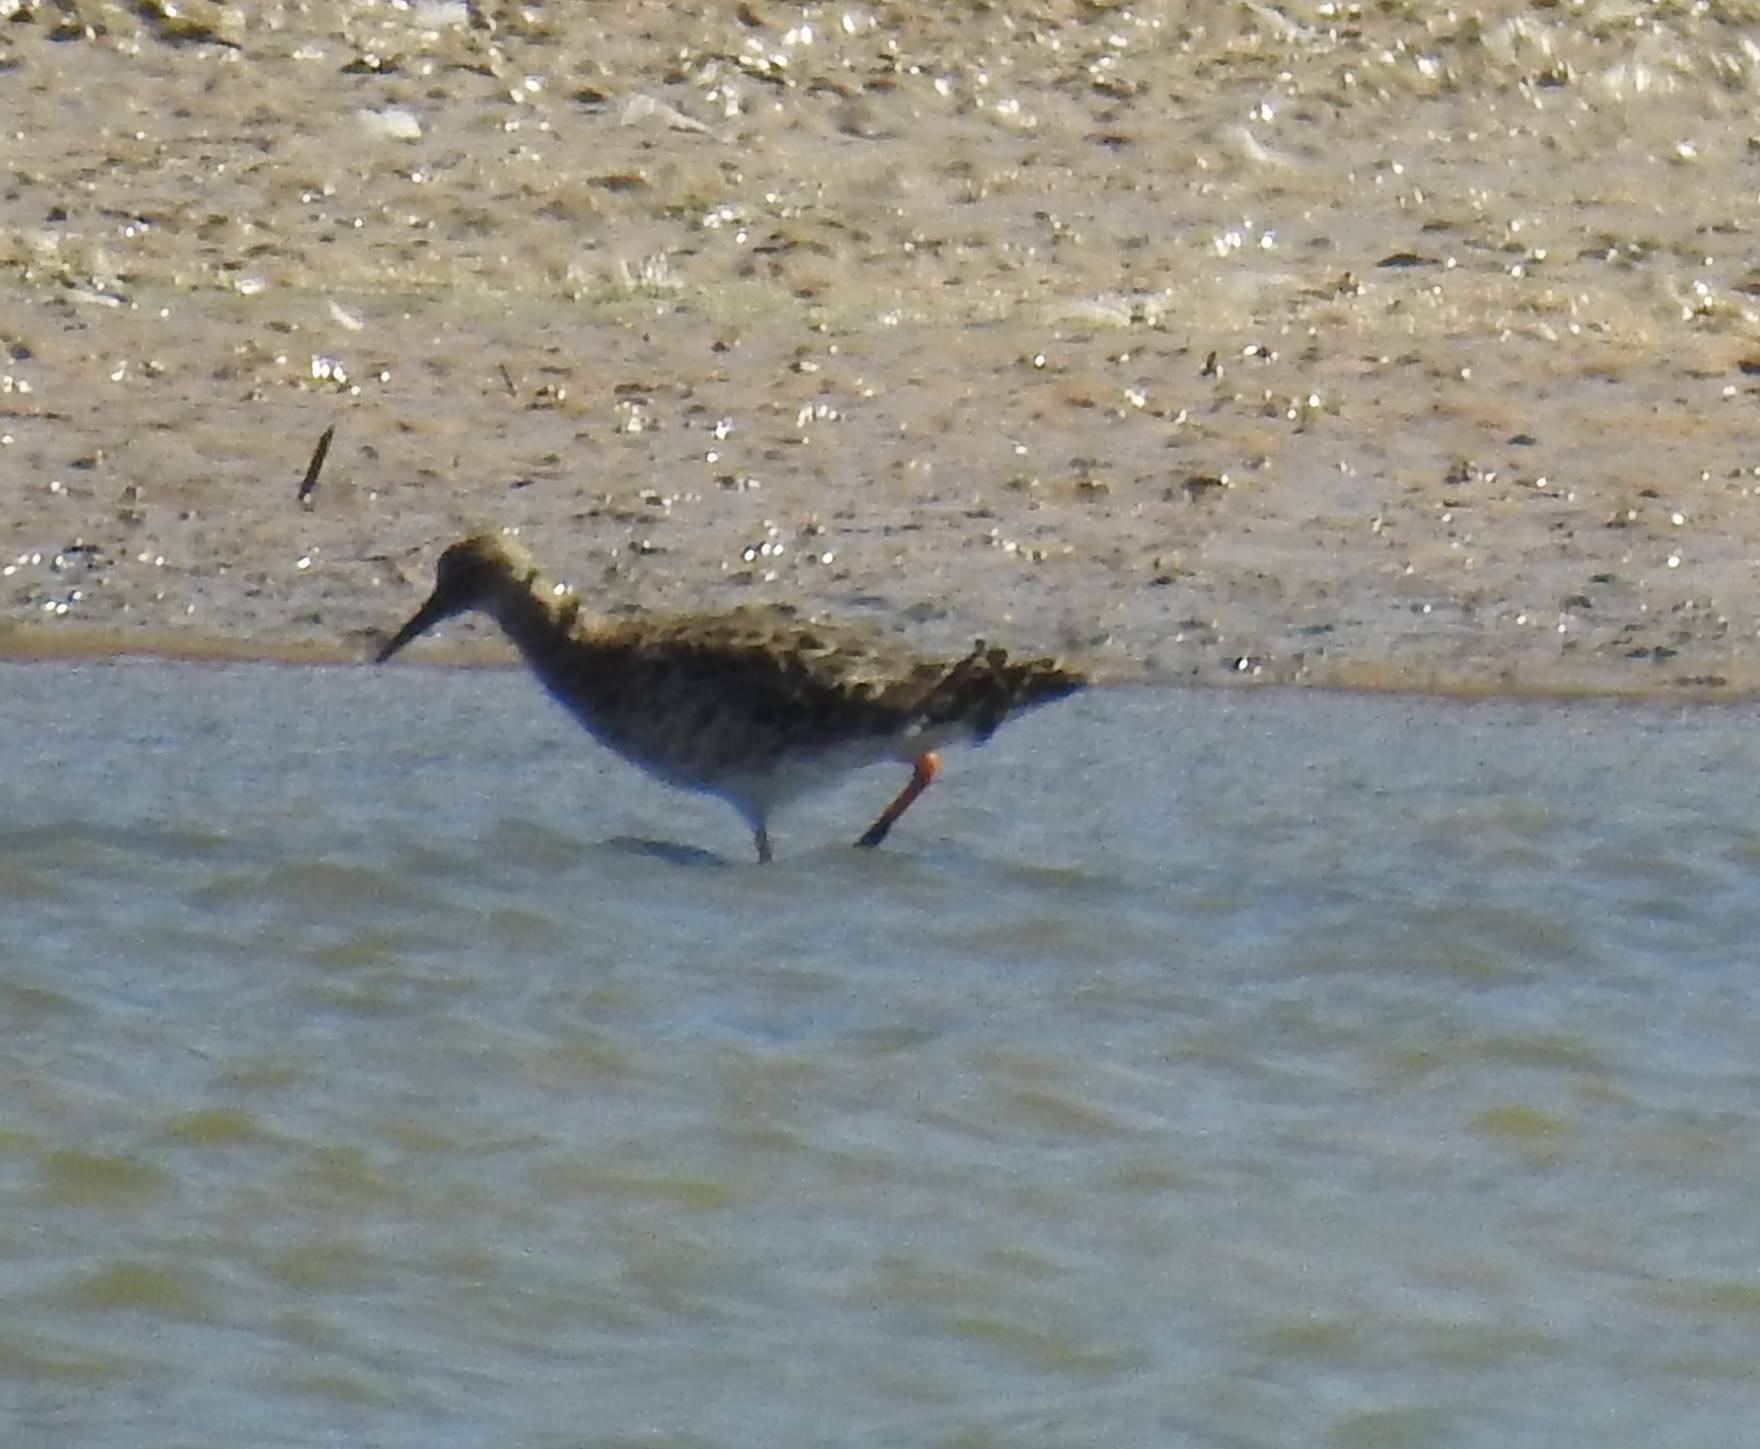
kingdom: Animalia
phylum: Chordata
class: Aves
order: Charadriiformes
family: Scolopacidae
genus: Calidris
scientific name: Calidris pugnax
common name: Ruff
